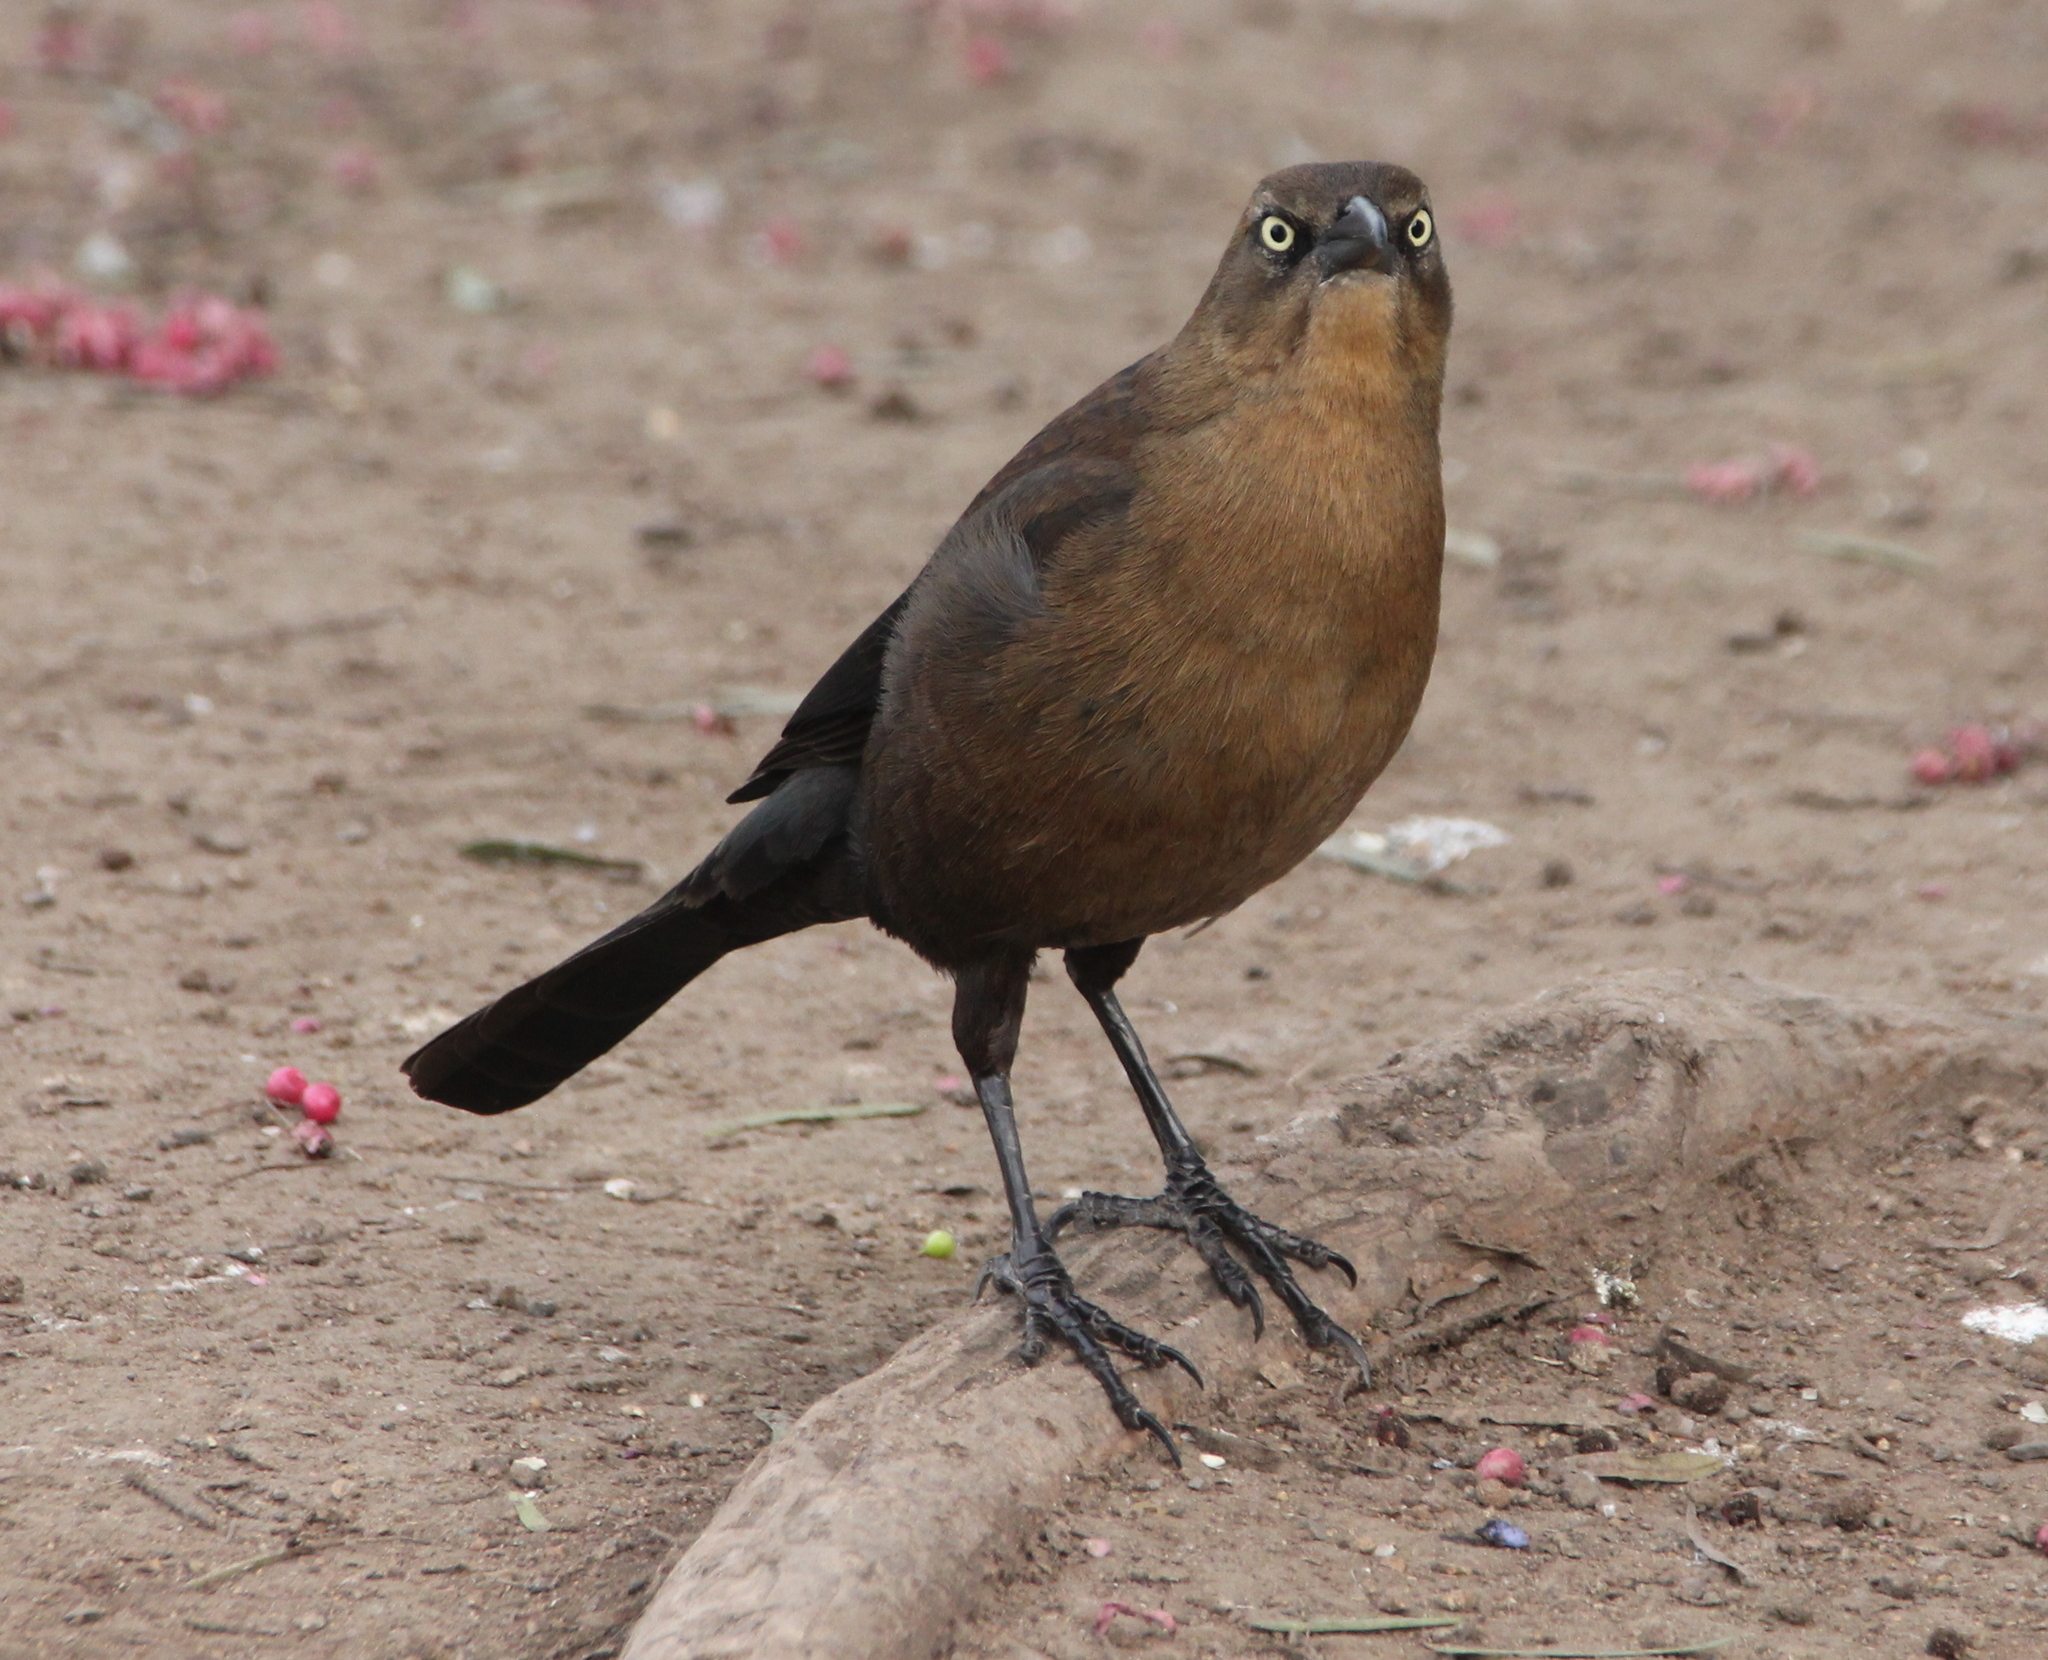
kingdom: Animalia
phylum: Chordata
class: Aves
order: Passeriformes
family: Icteridae
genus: Quiscalus
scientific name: Quiscalus mexicanus
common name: Great-tailed grackle
